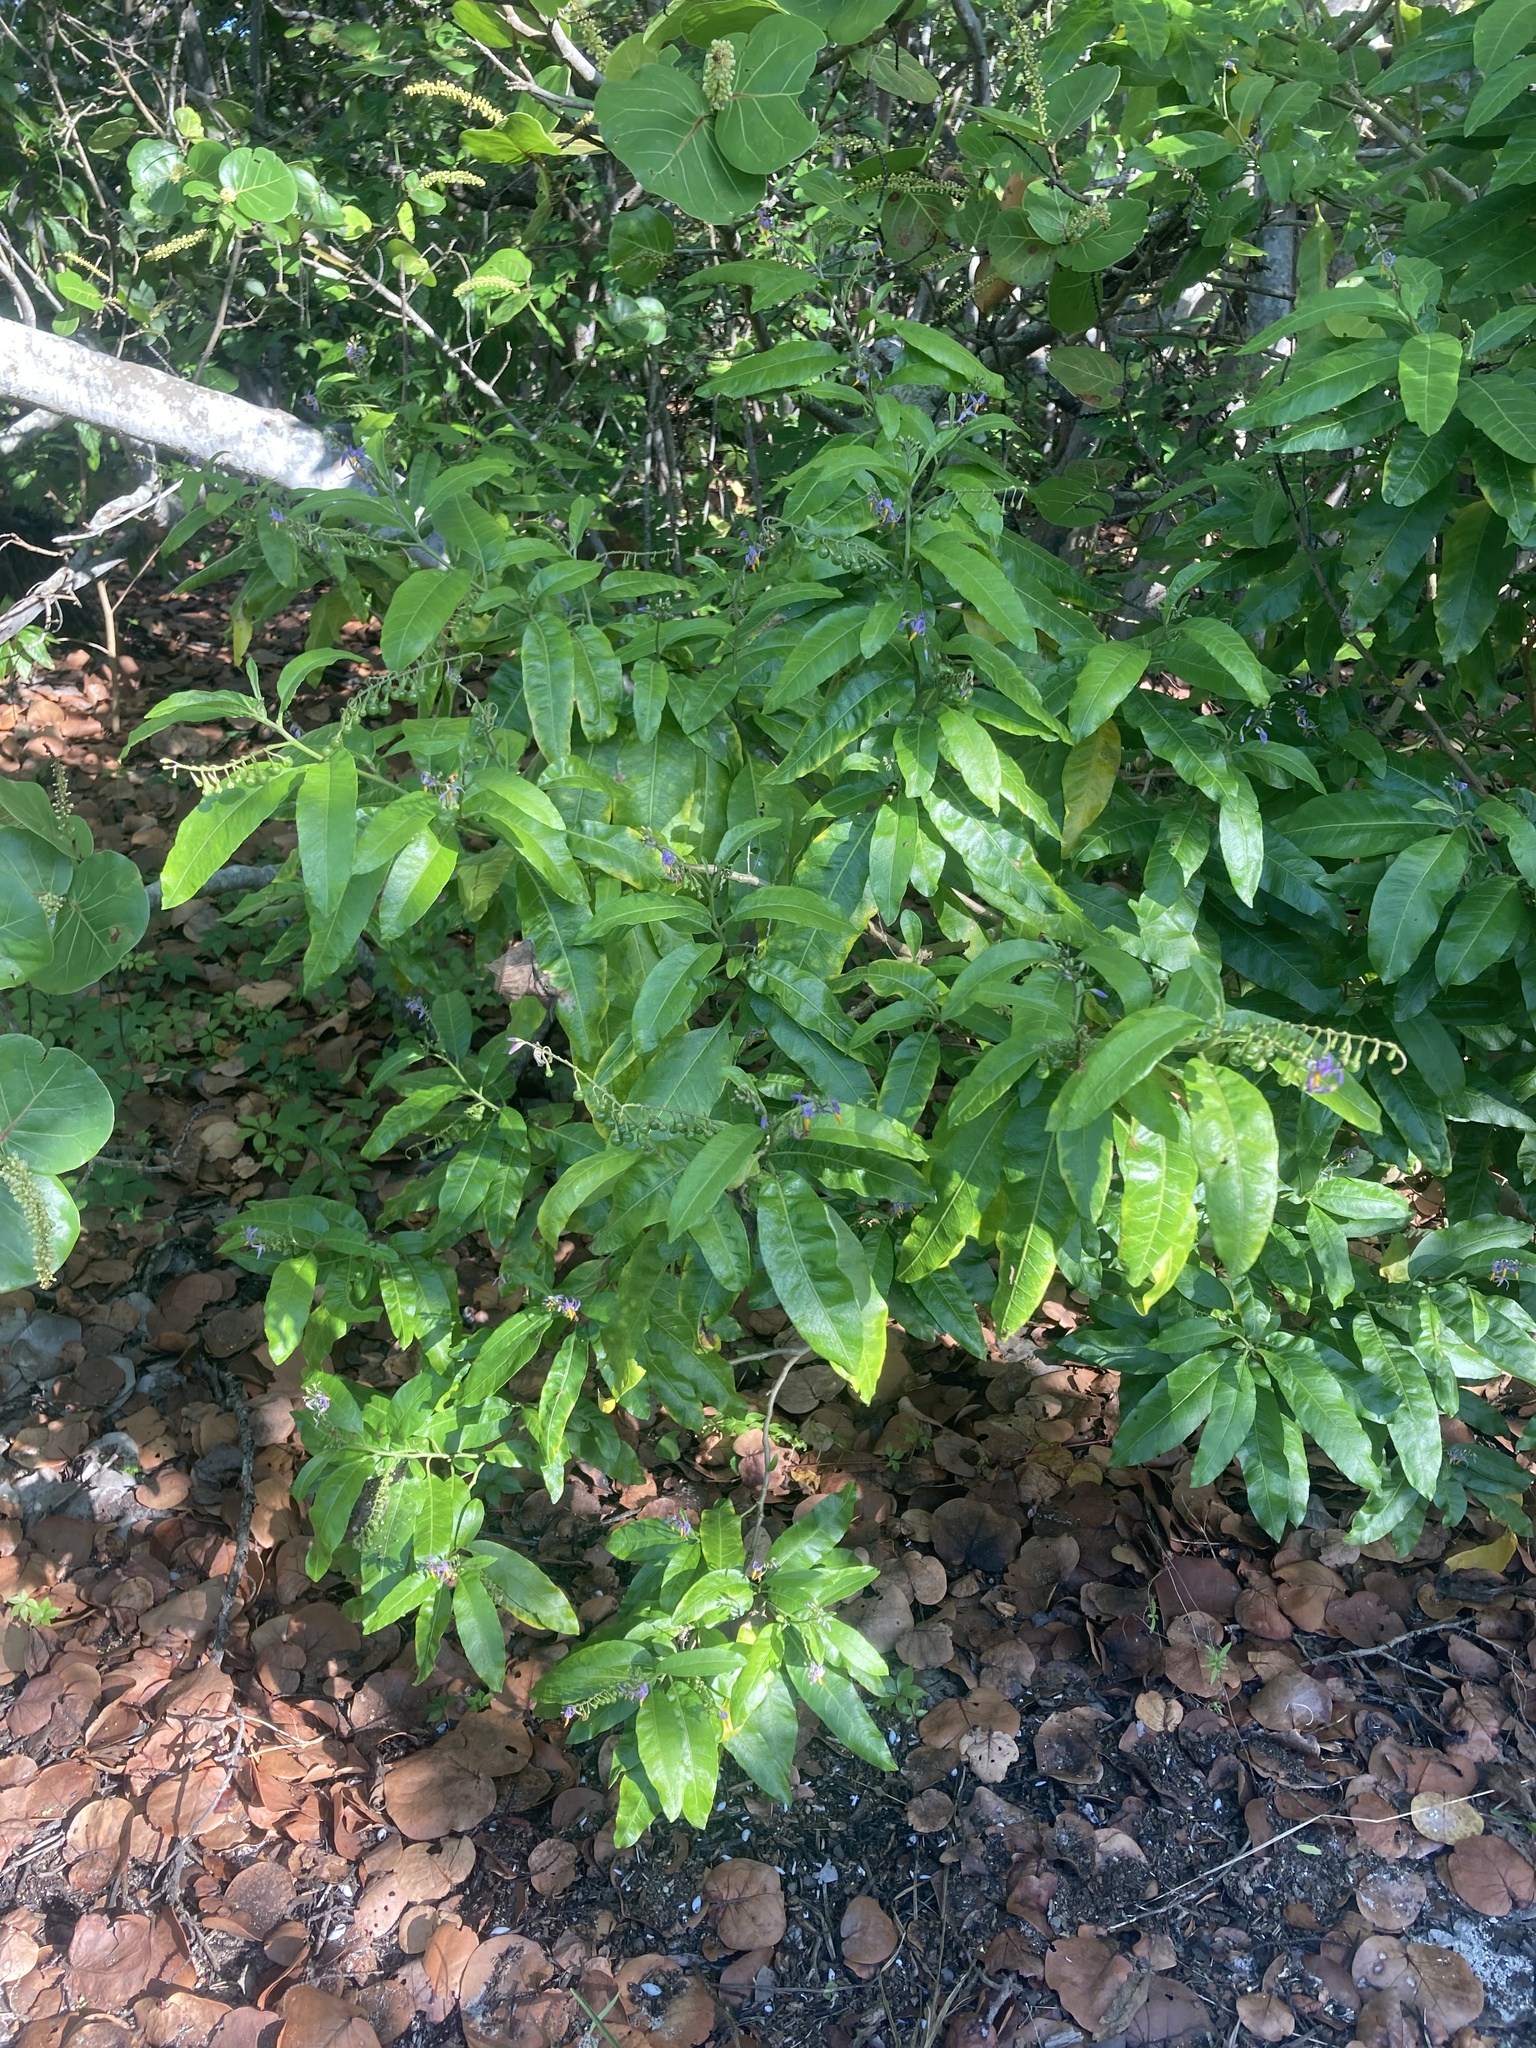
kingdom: Plantae
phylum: Tracheophyta
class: Magnoliopsida
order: Solanales
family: Solanaceae
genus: Solanum
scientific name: Solanum bahamense
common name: Canker-berry
